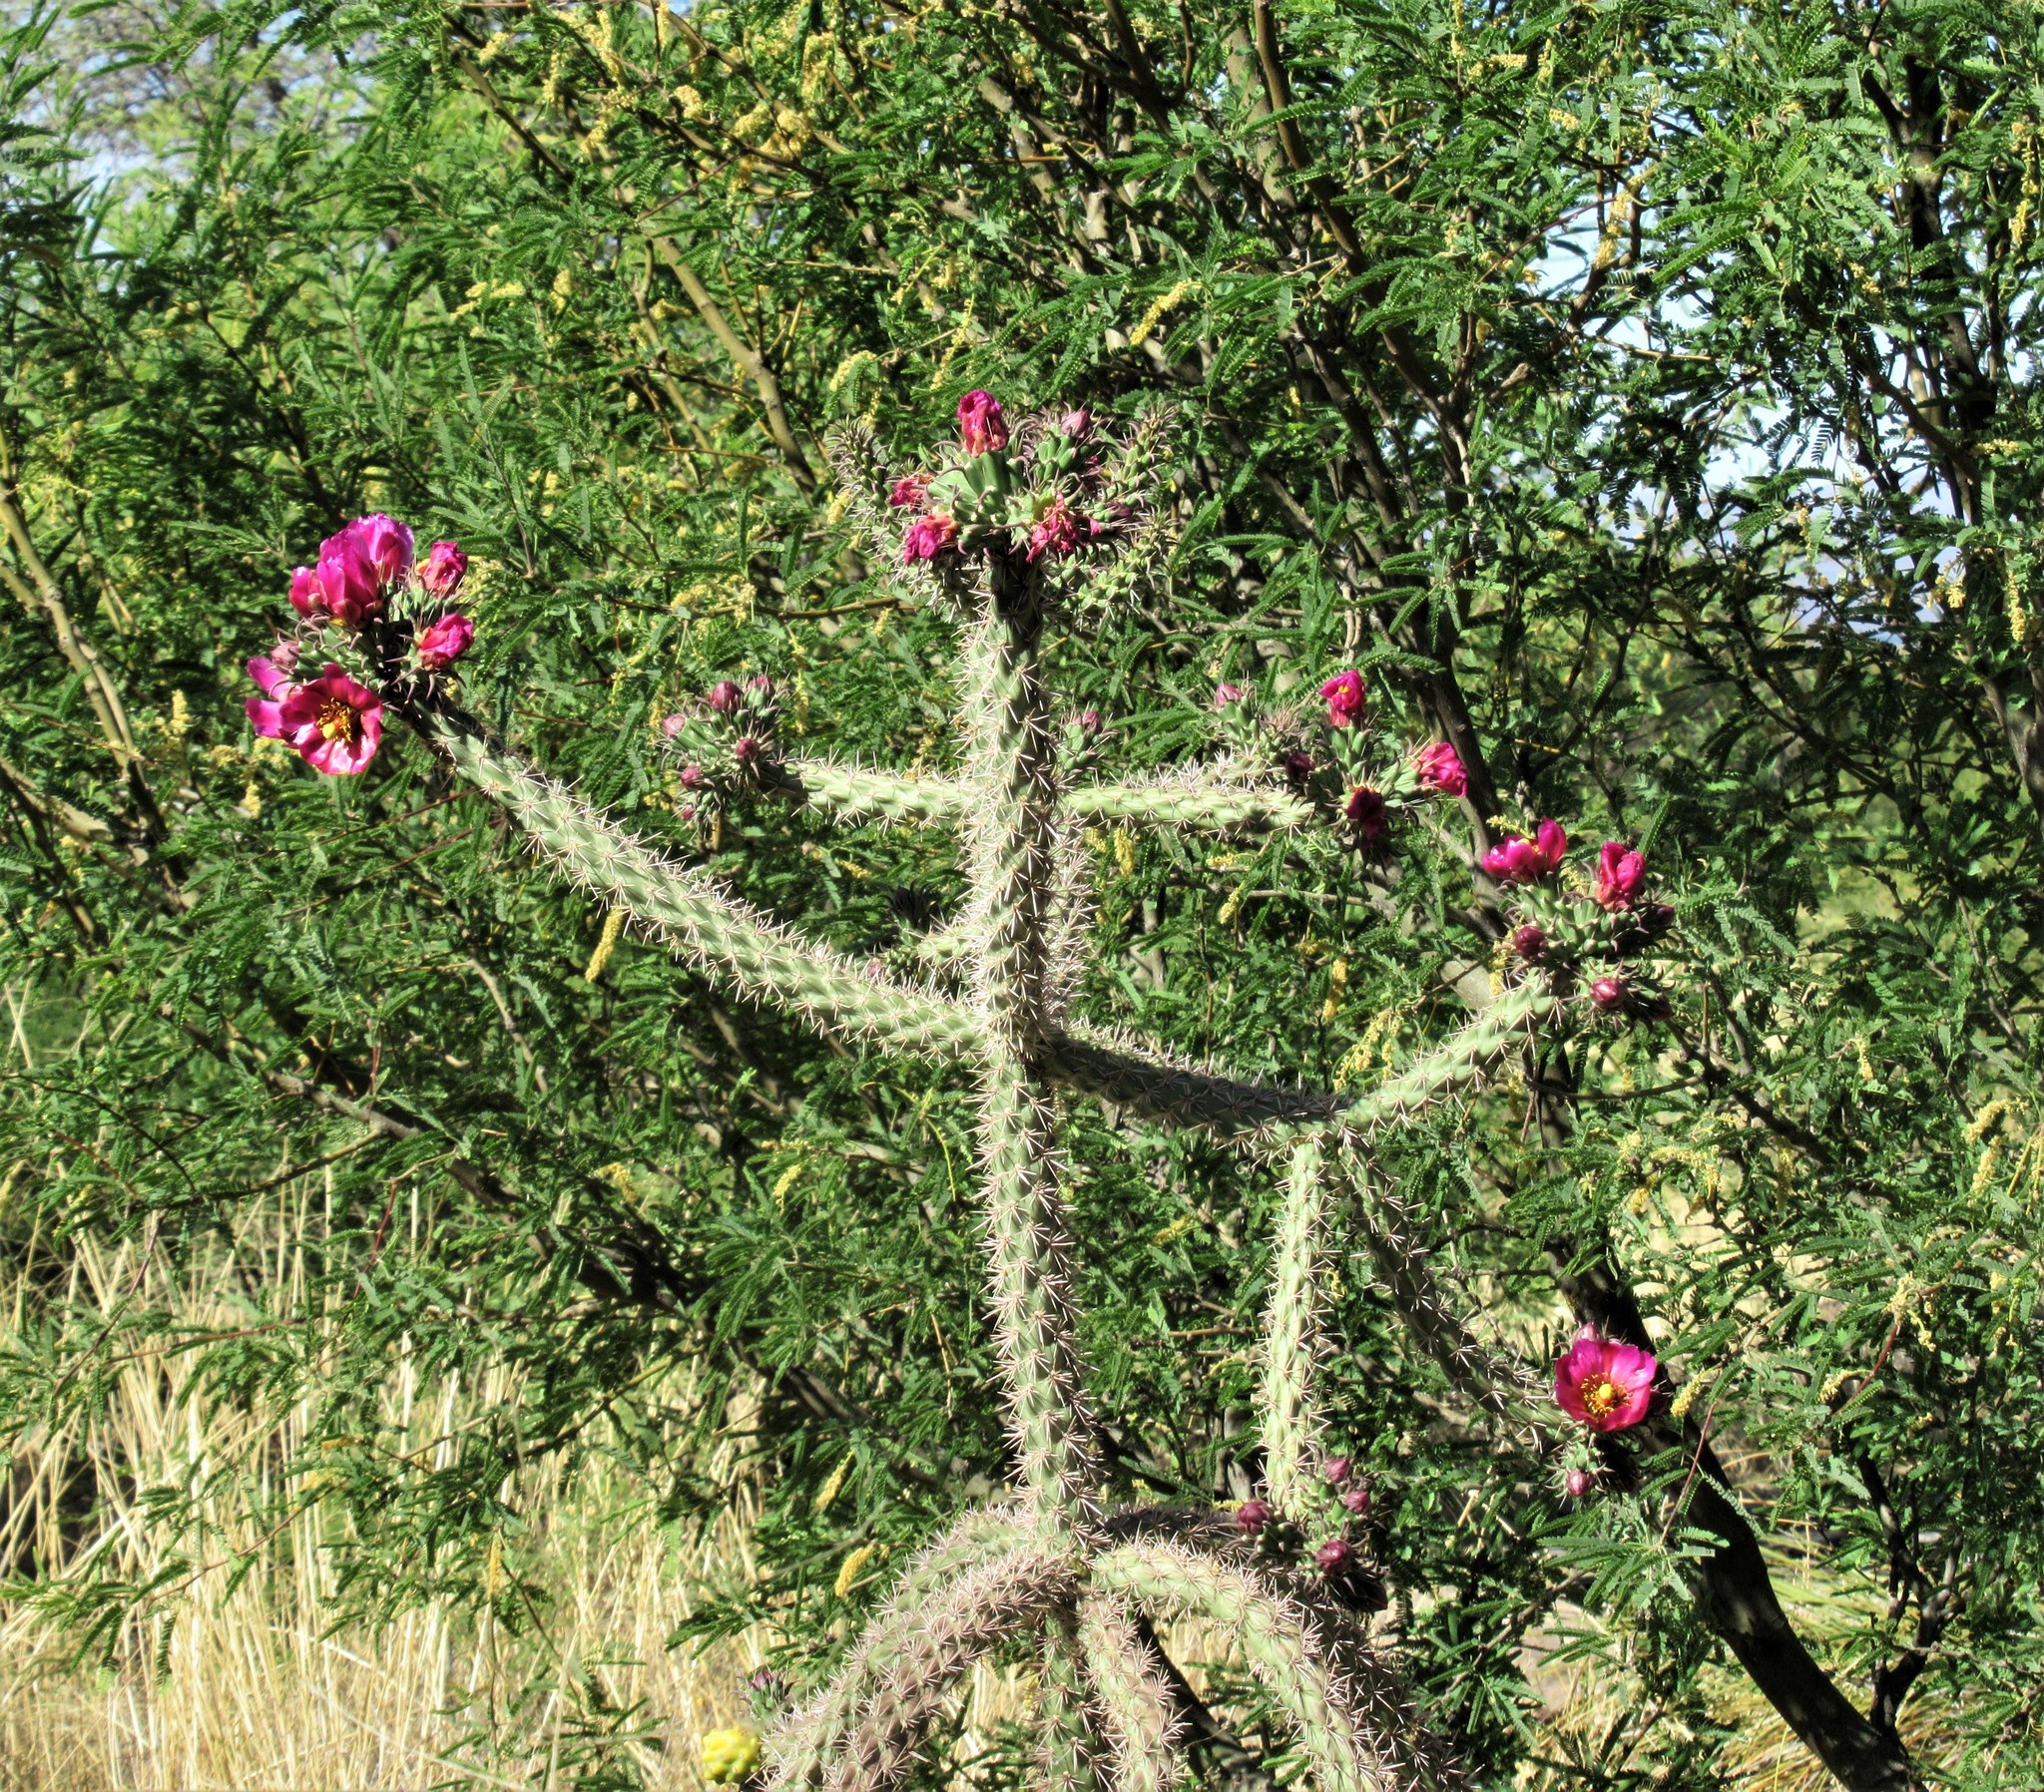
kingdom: Plantae
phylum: Tracheophyta
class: Magnoliopsida
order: Caryophyllales
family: Cactaceae
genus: Cylindropuntia
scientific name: Cylindropuntia imbricata
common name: Candelabrum cactus
